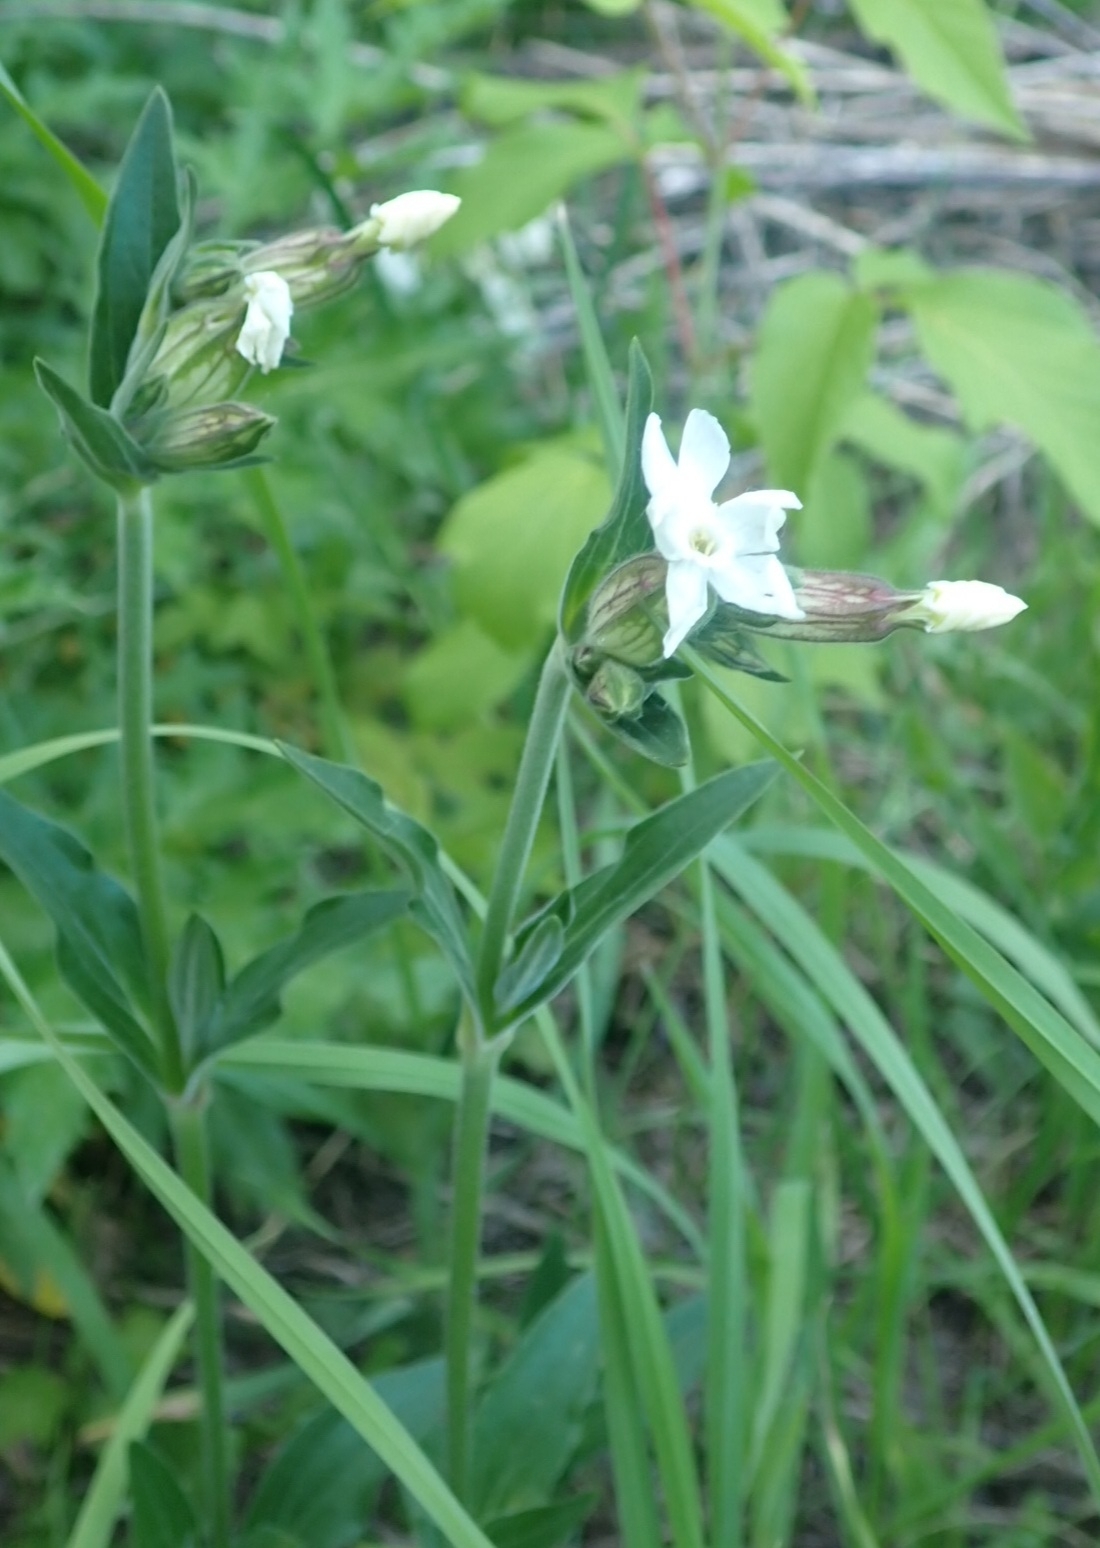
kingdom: Plantae
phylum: Tracheophyta
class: Magnoliopsida
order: Caryophyllales
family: Caryophyllaceae
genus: Silene
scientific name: Silene latifolia
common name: White campion
